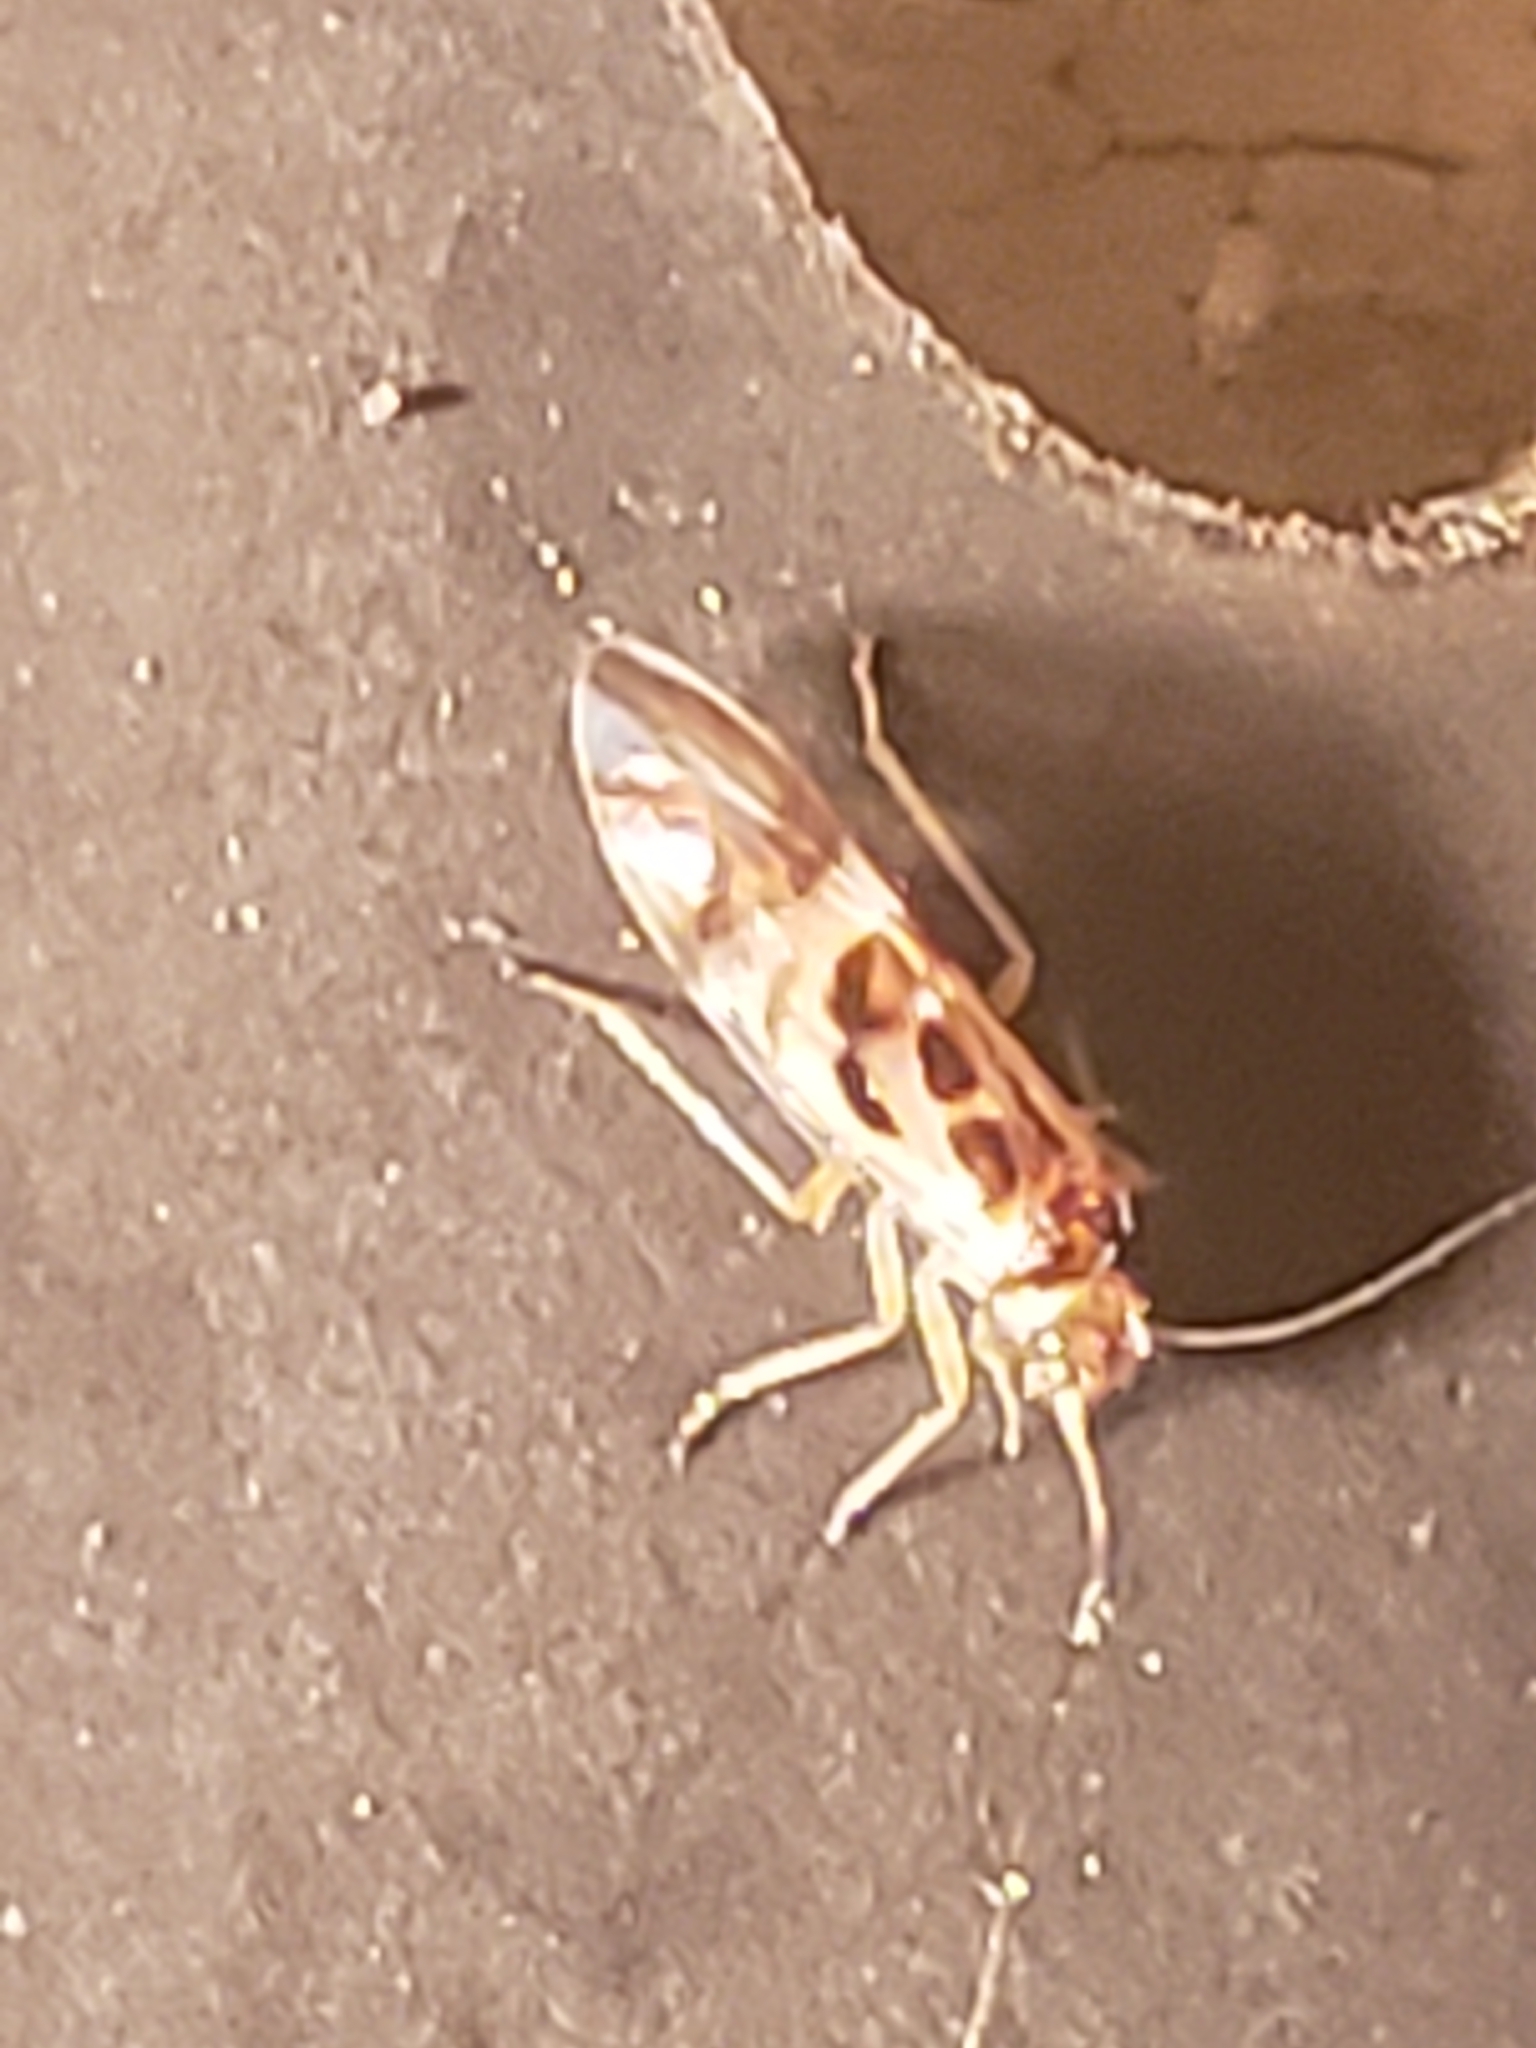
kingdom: Animalia
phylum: Arthropoda
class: Insecta
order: Psocodea
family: Stenopsocidae
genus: Graphopsocus
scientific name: Graphopsocus cruciatus
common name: Lizard bark louse
